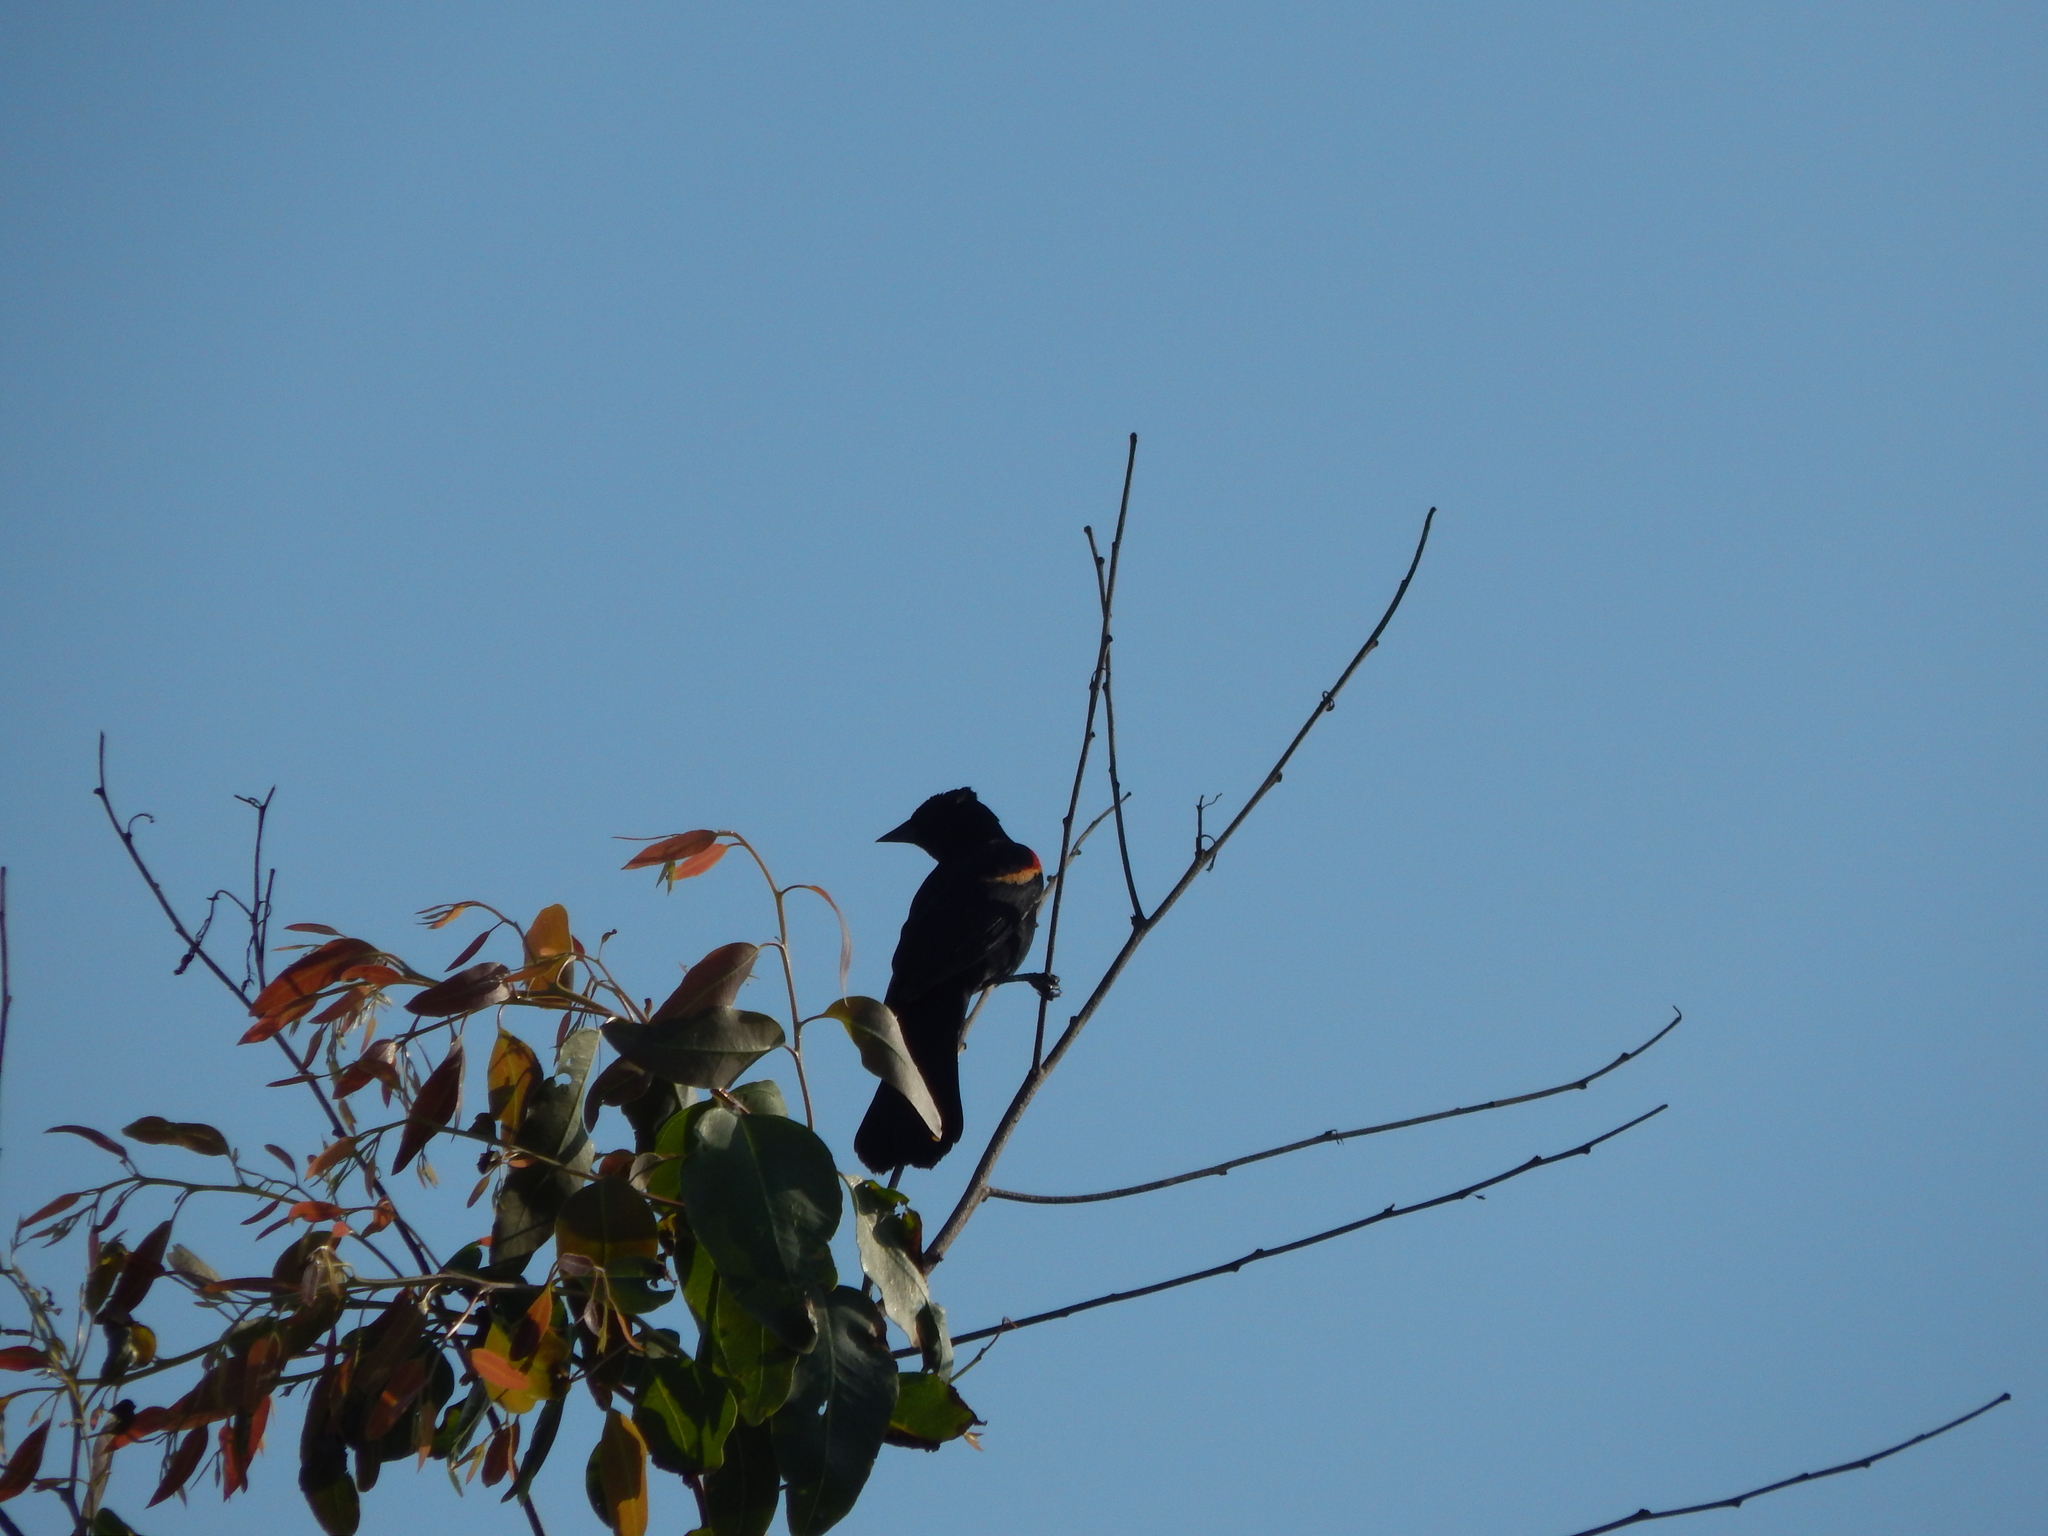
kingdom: Animalia
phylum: Chordata
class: Aves
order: Passeriformes
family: Icteridae
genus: Agelaius
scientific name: Agelaius phoeniceus
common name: Red-winged blackbird
